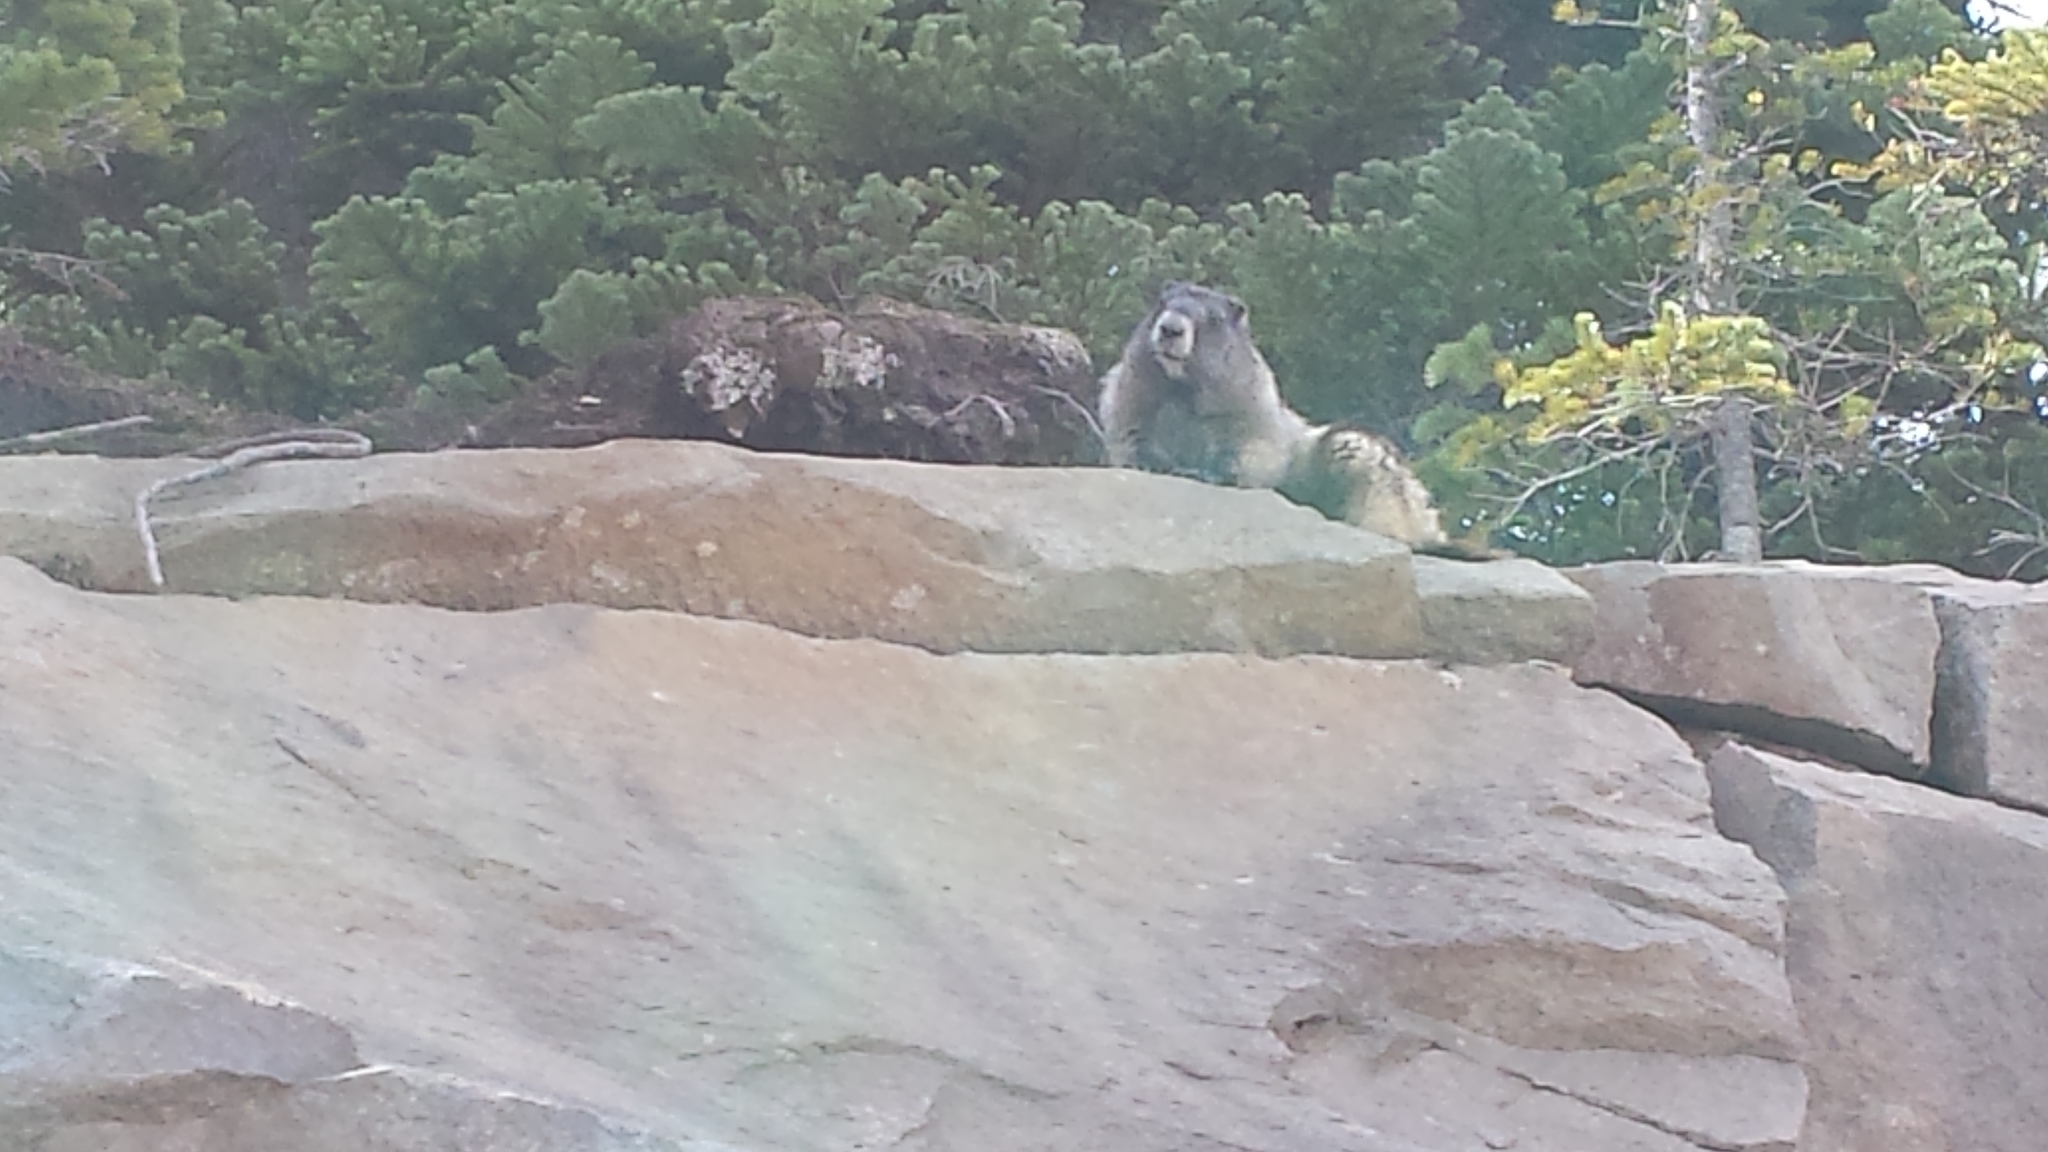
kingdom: Animalia
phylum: Chordata
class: Mammalia
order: Rodentia
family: Sciuridae
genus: Marmota
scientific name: Marmota caligata
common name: Hoary marmot
